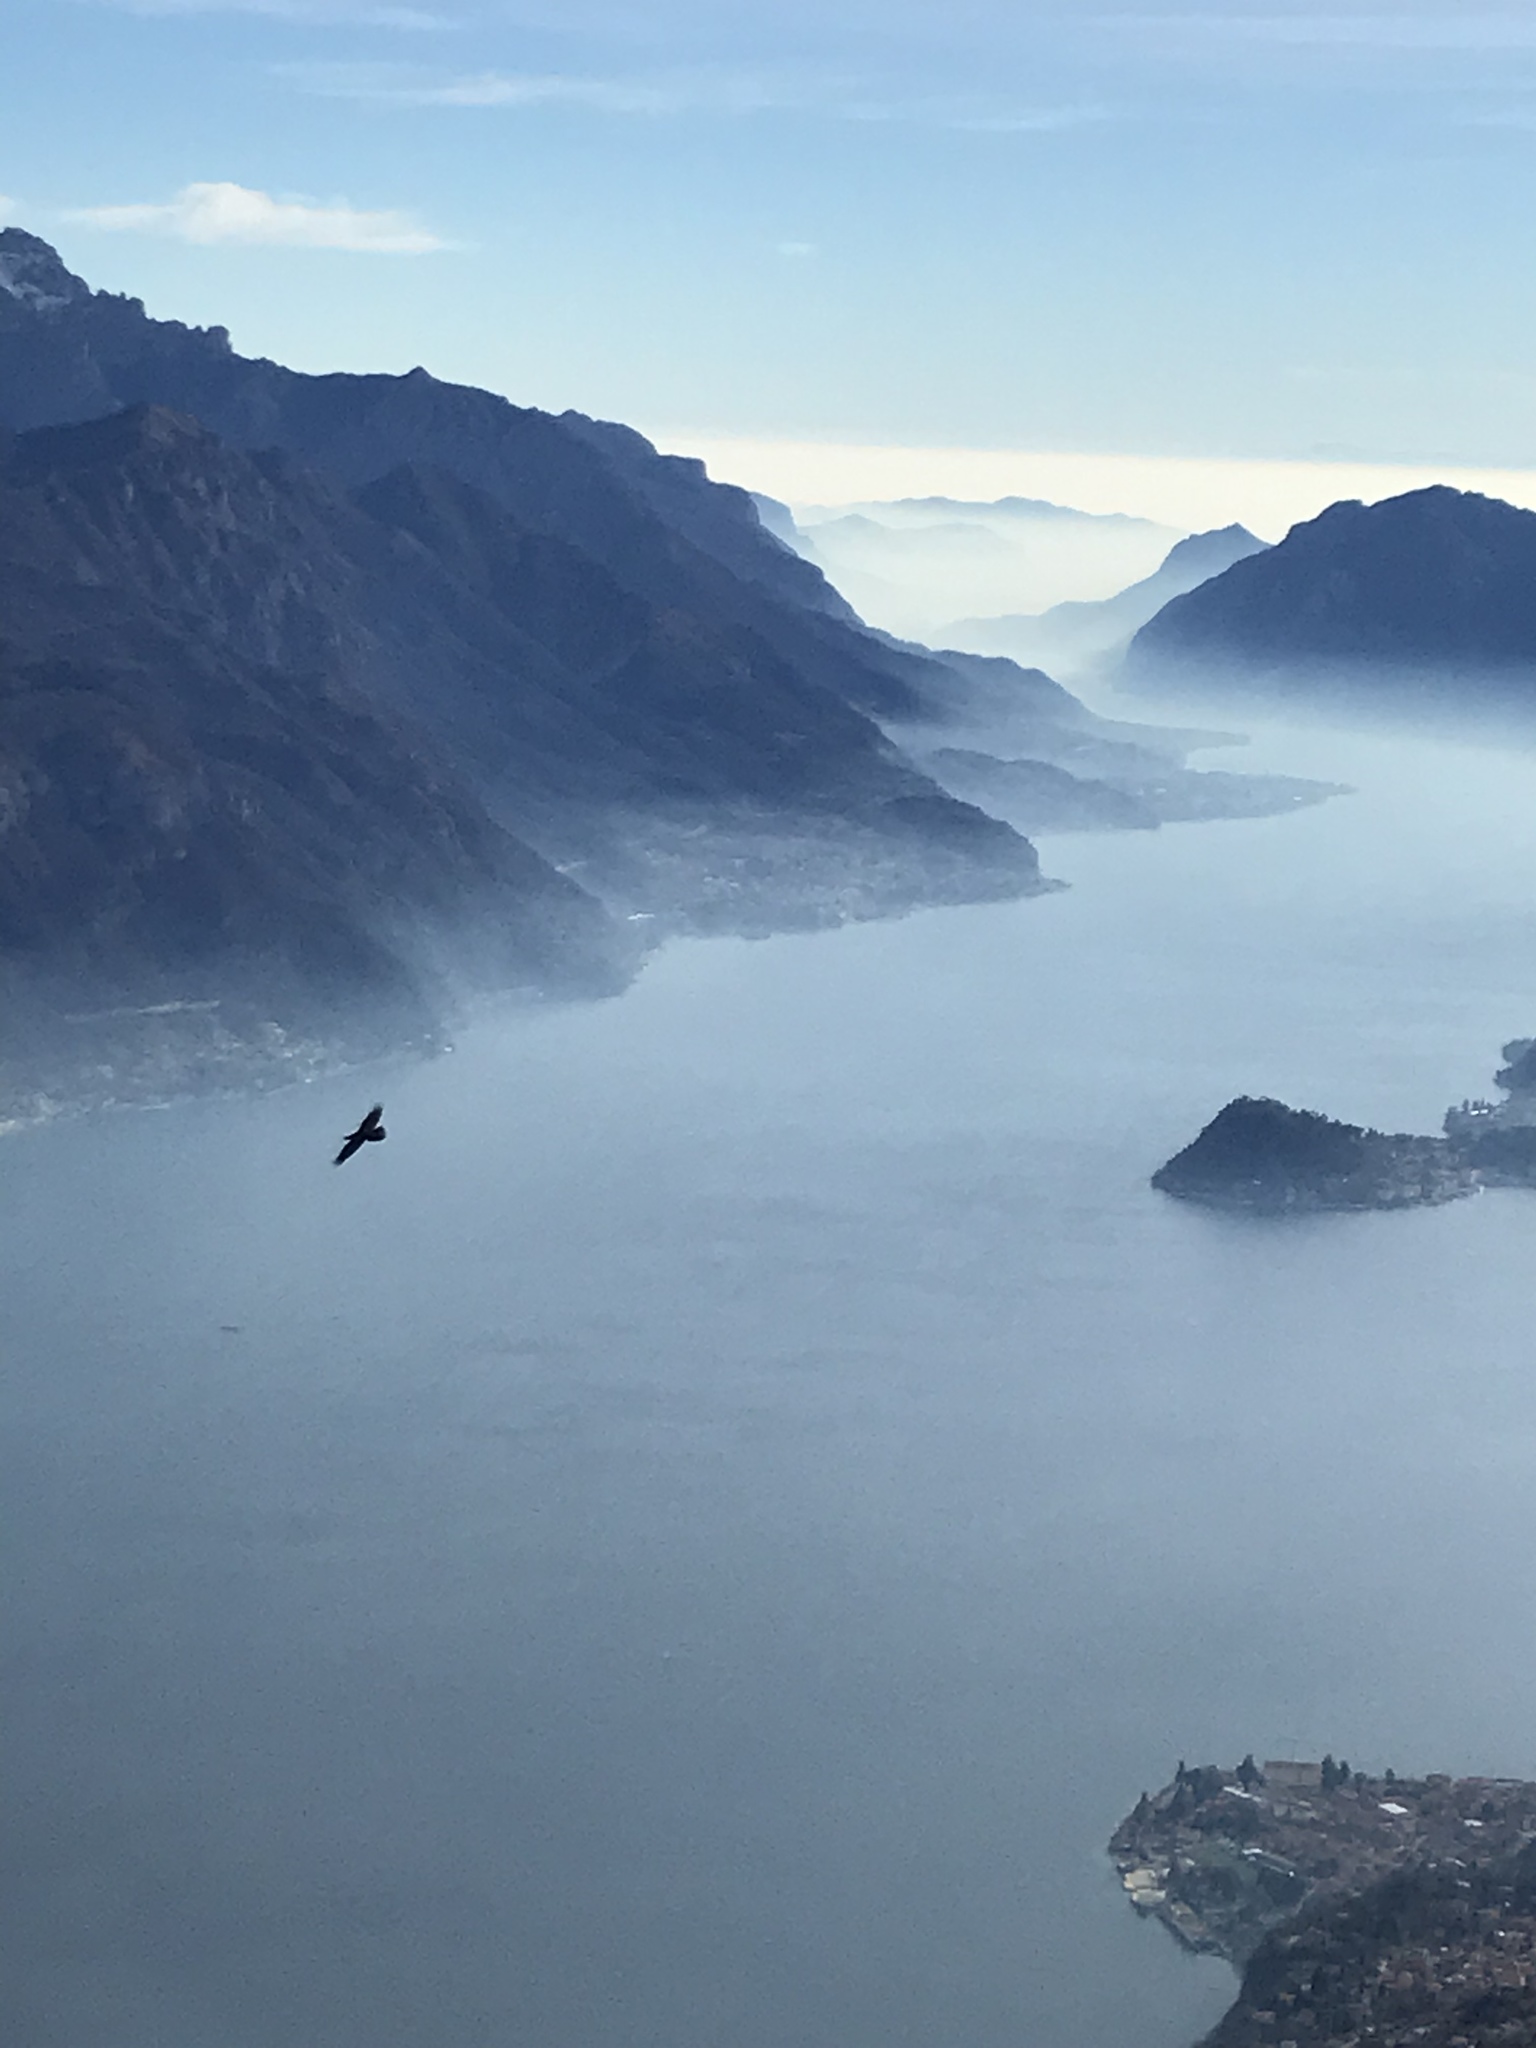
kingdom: Animalia
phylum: Chordata
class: Aves
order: Passeriformes
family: Corvidae
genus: Corvus
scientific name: Corvus corax
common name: Common raven
